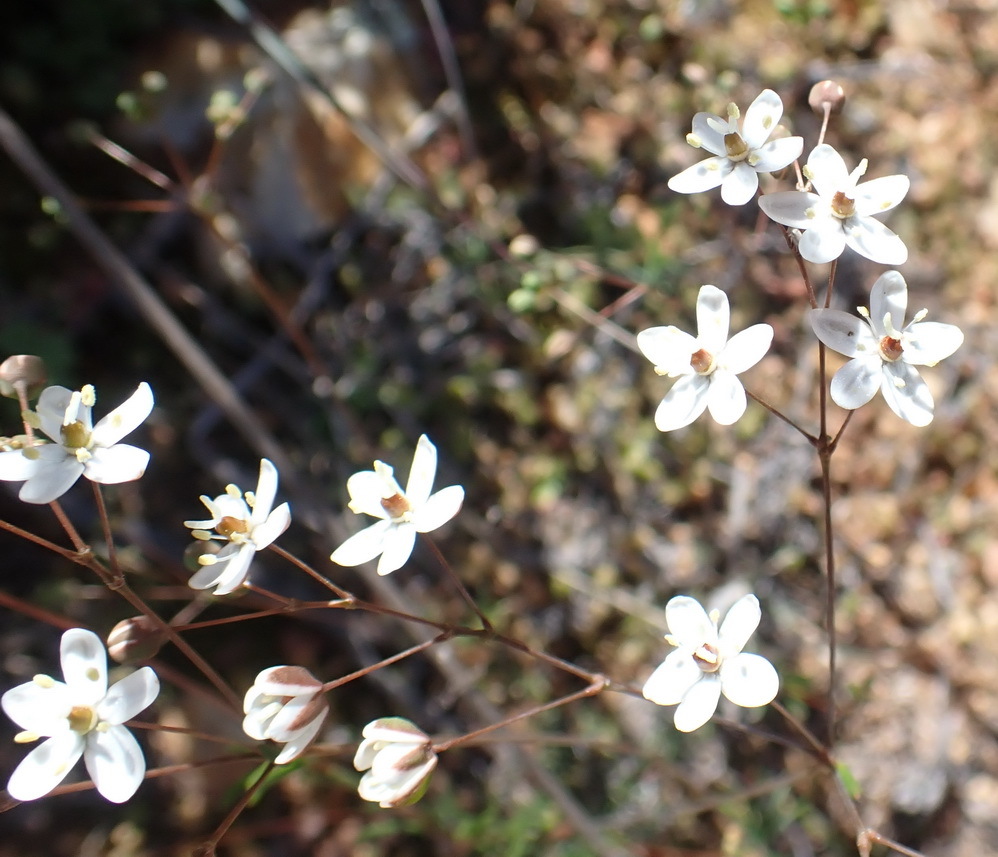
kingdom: Plantae
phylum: Tracheophyta
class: Magnoliopsida
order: Caryophyllales
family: Molluginaceae
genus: Pharnaceum
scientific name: Pharnaceum aurantium
